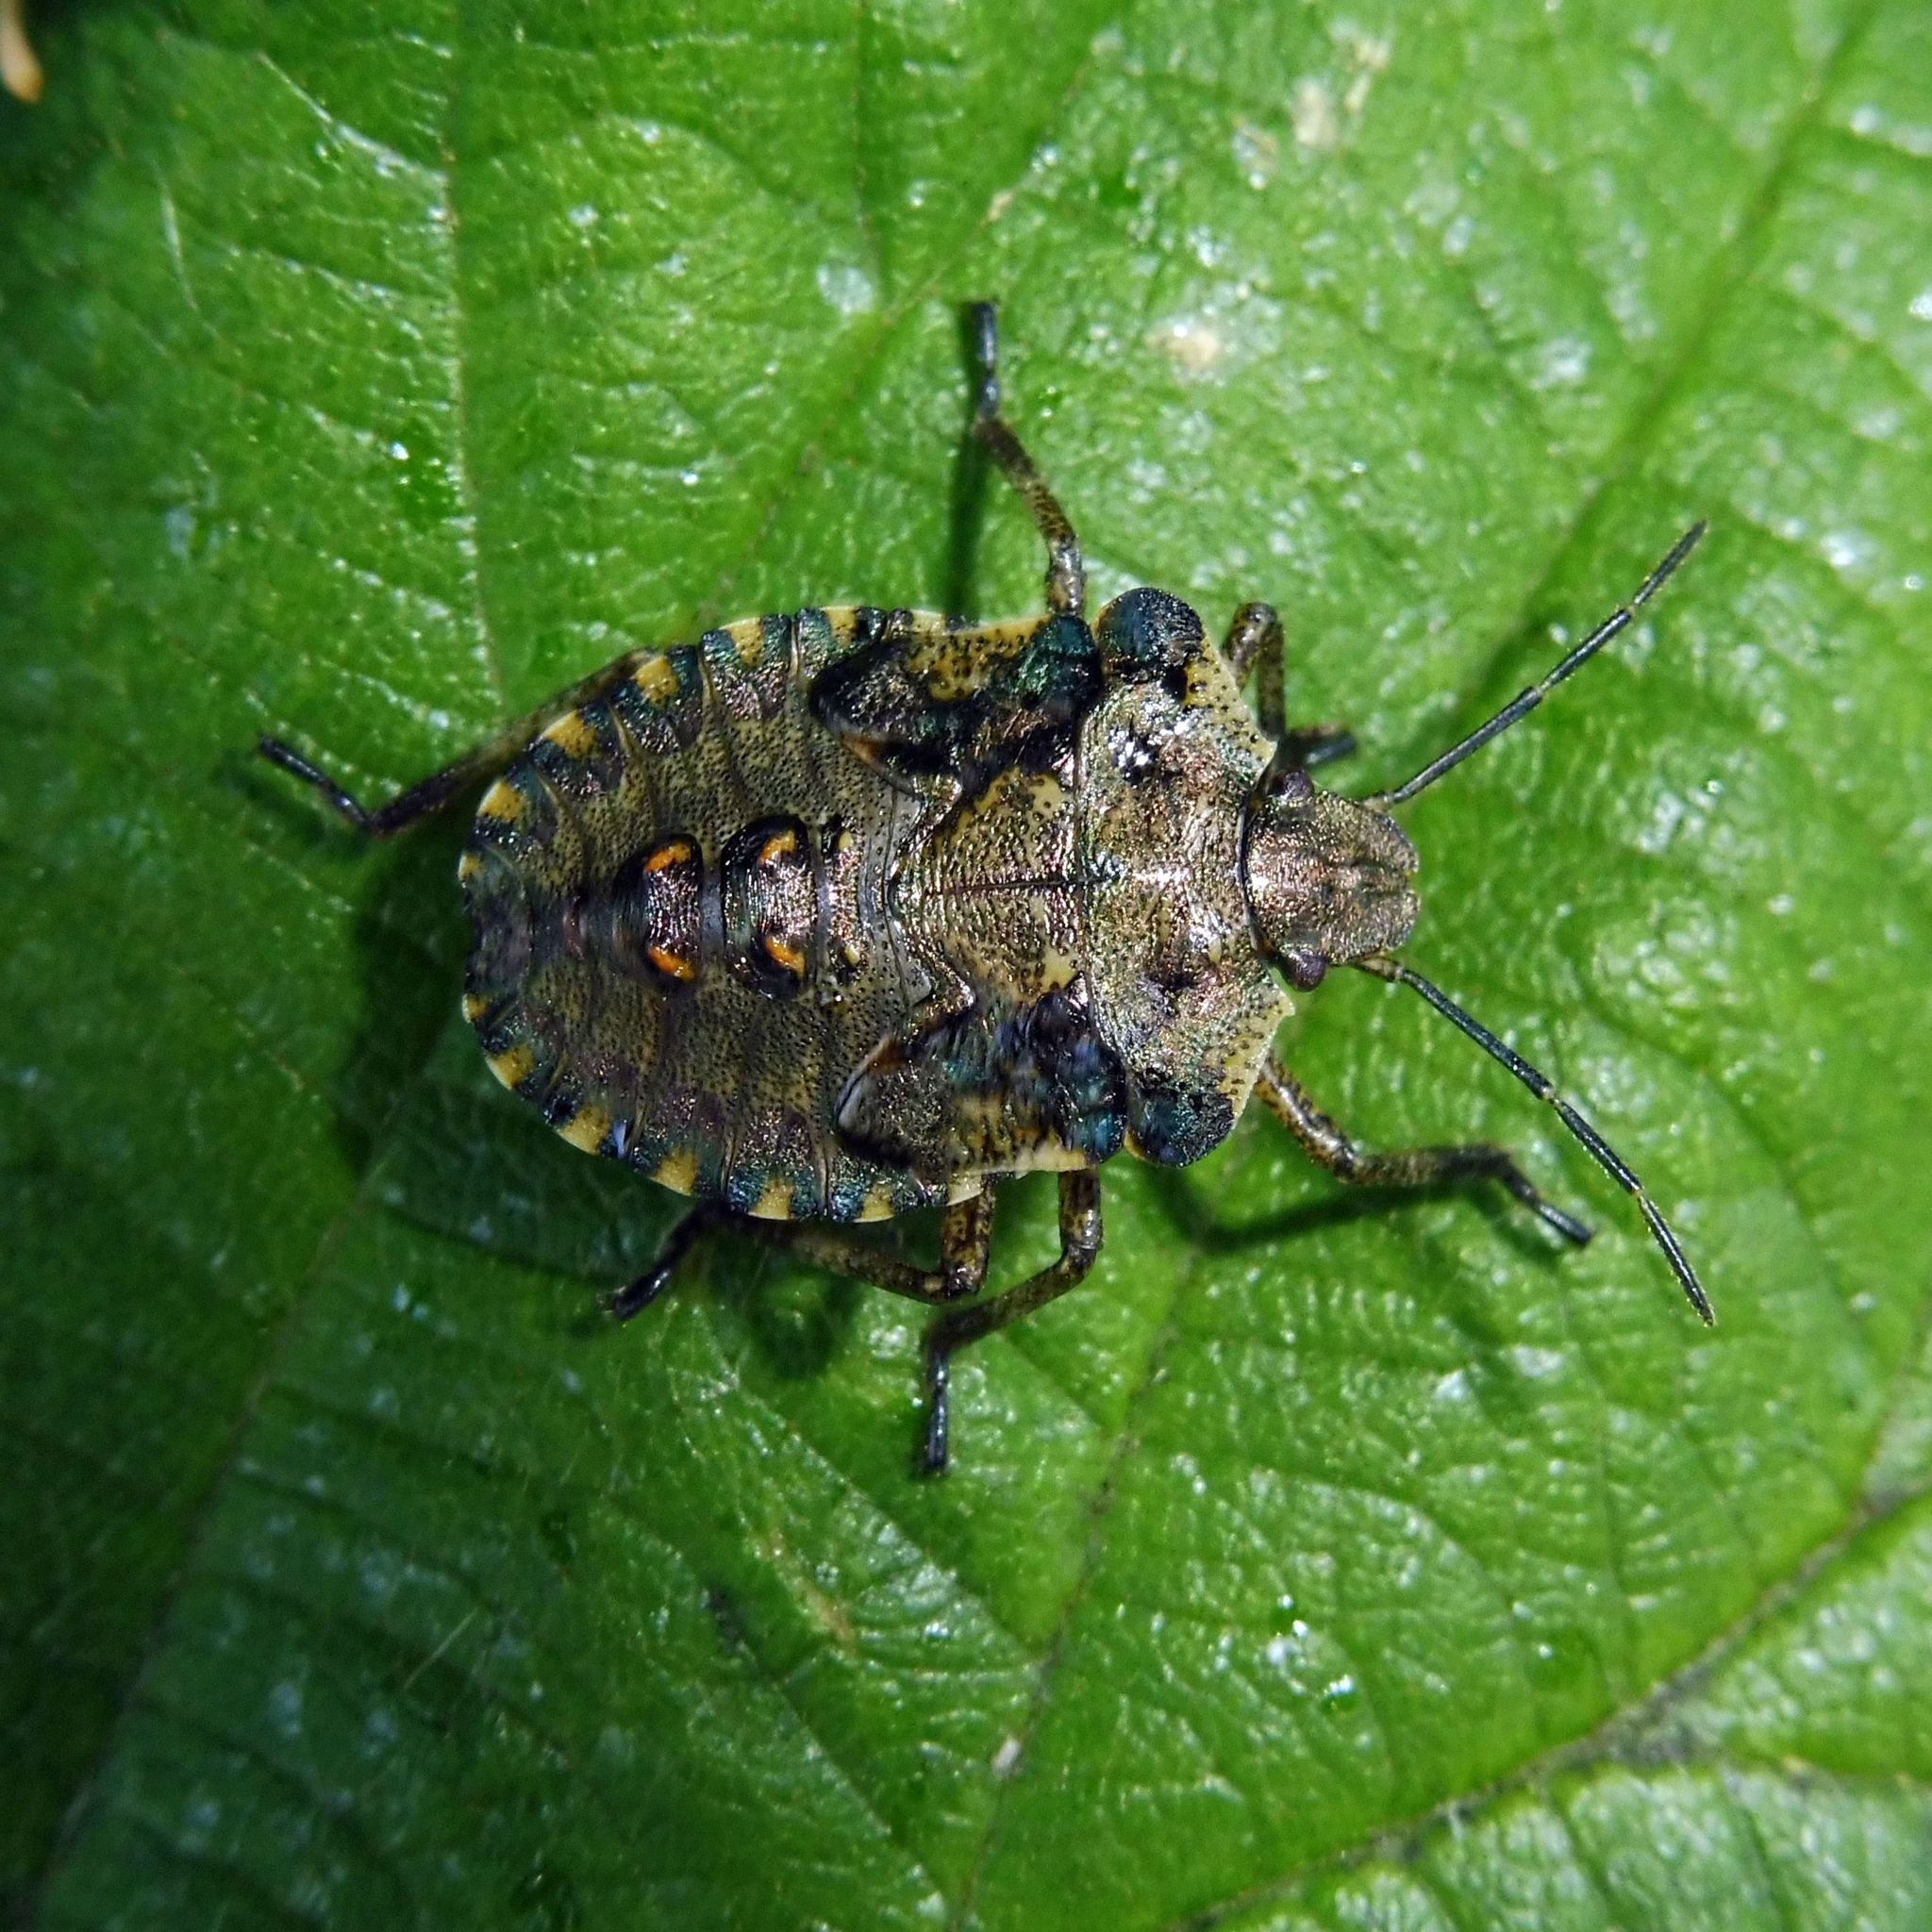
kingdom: Animalia
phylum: Arthropoda
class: Insecta
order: Hemiptera
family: Pentatomidae
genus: Pentatoma
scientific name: Pentatoma rufipes
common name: Forest bug
